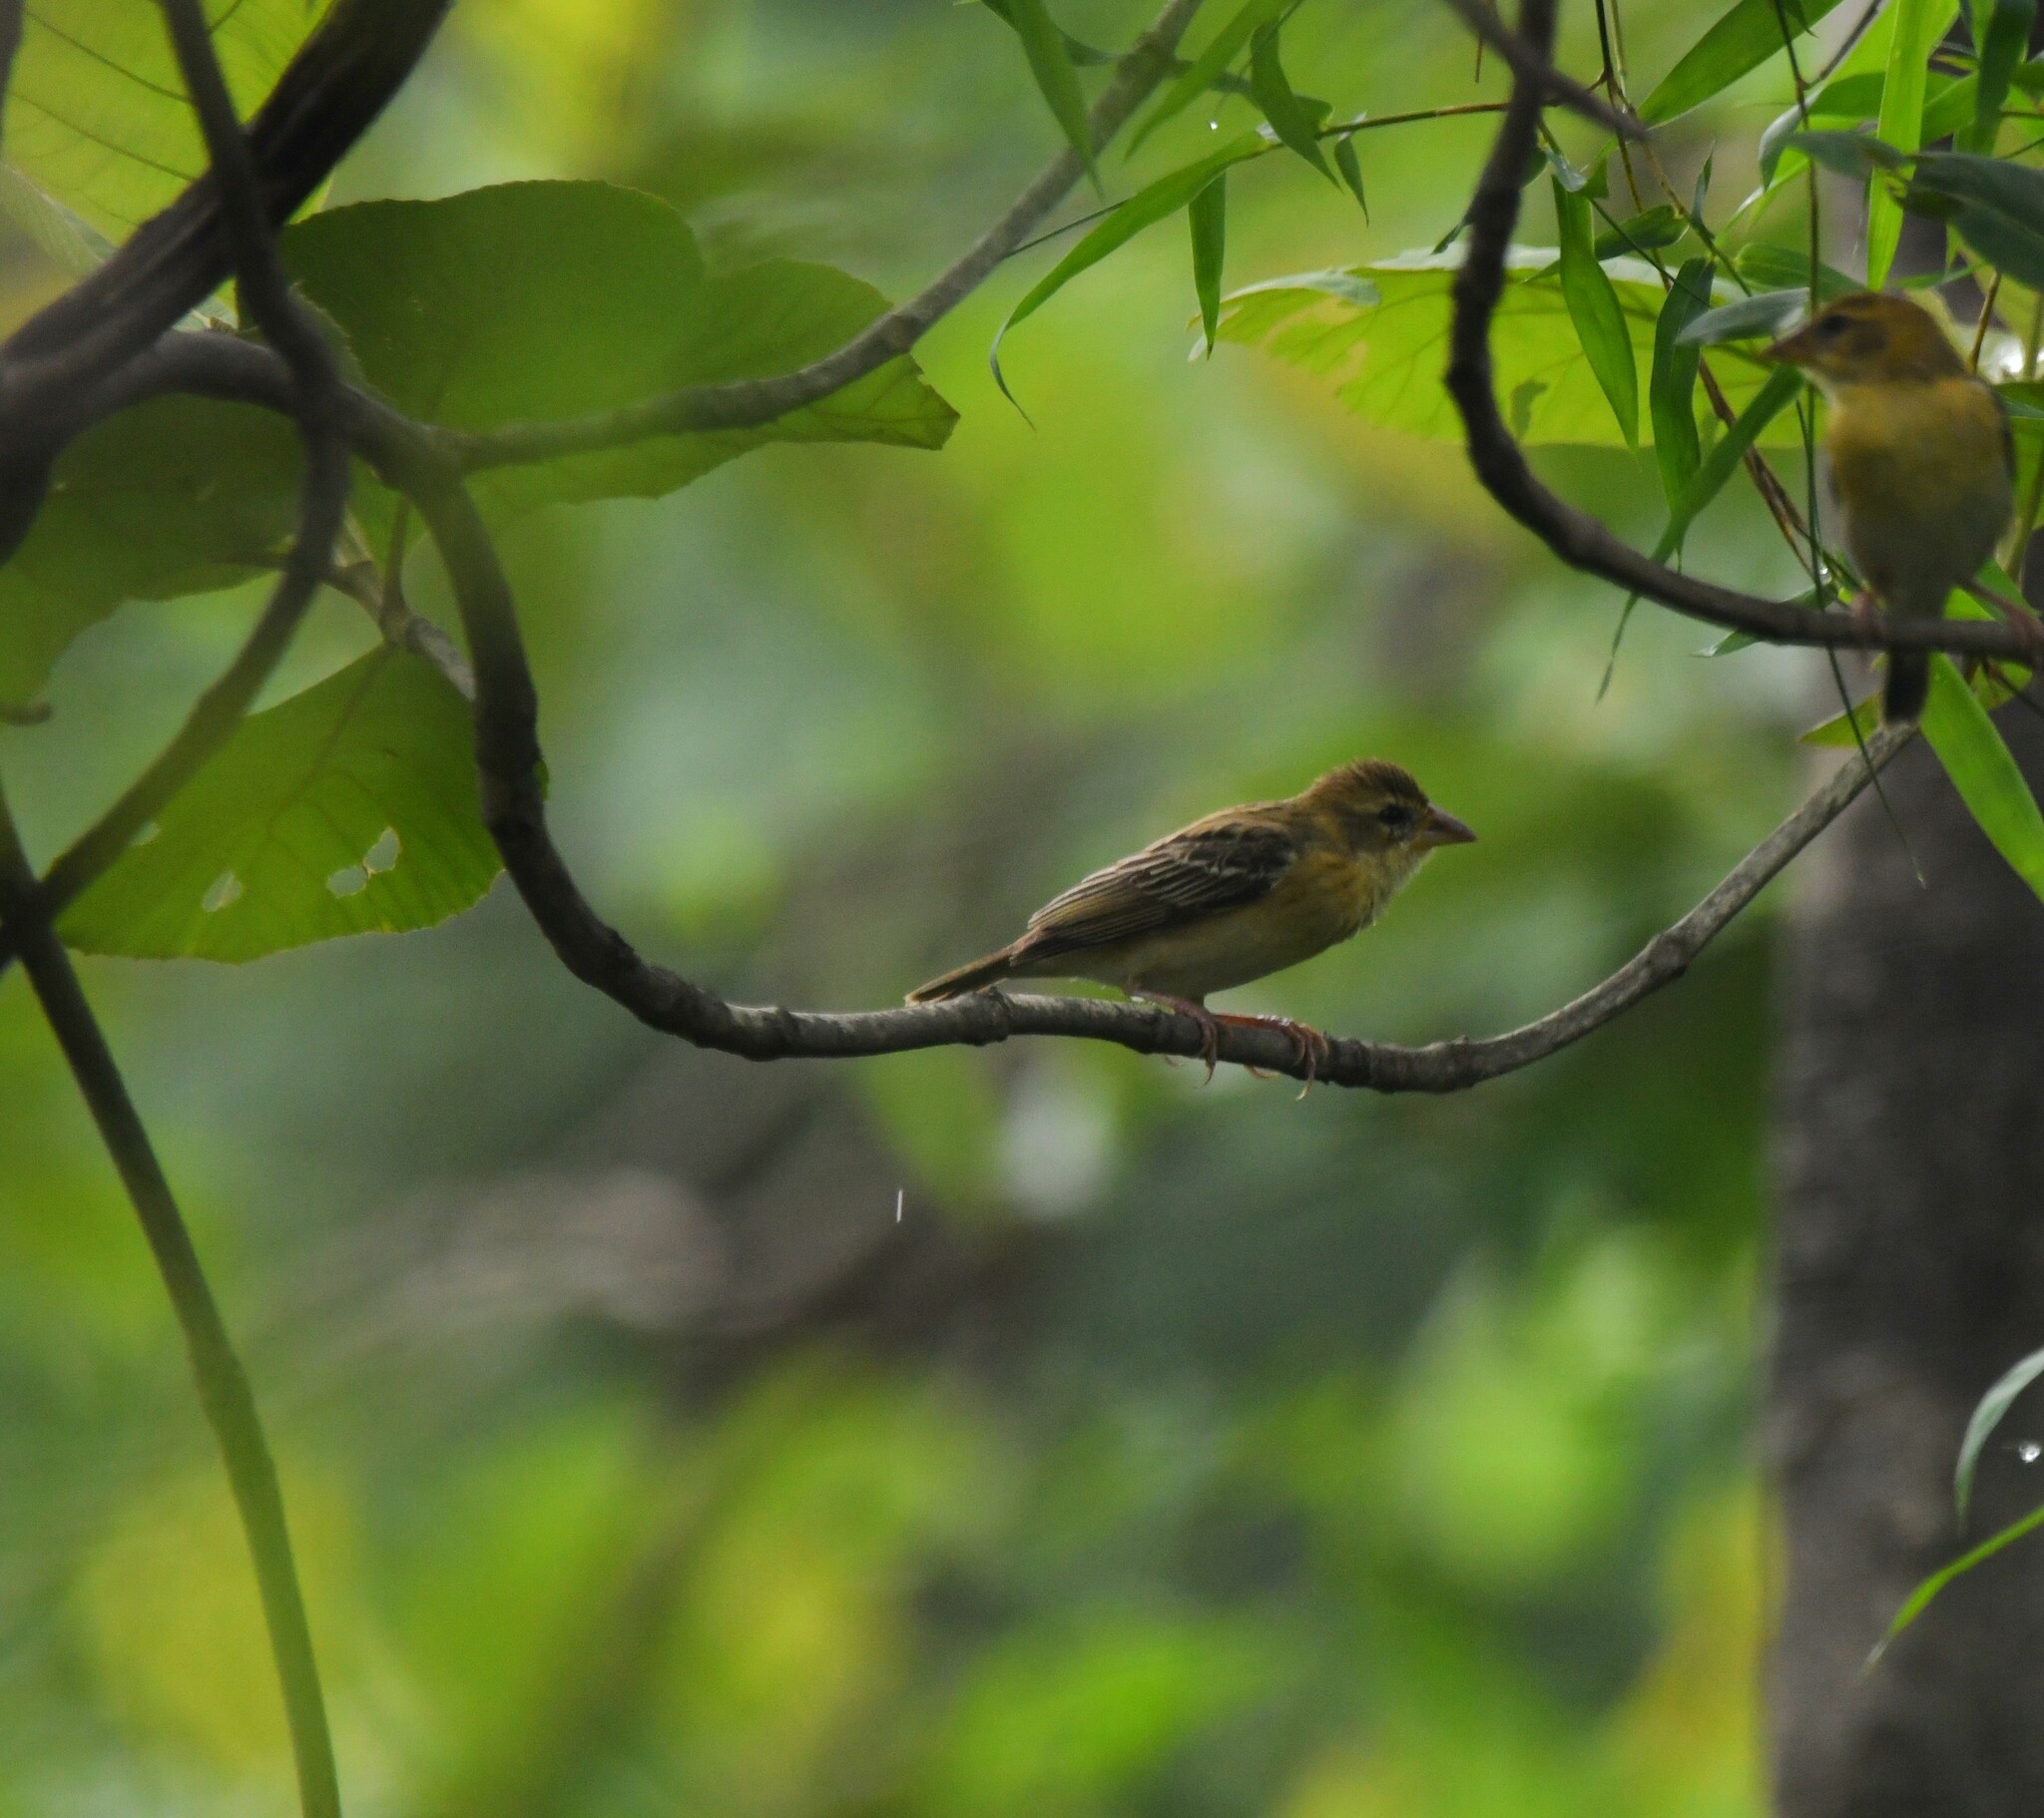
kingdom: Animalia
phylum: Chordata
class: Aves
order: Passeriformes
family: Ploceidae
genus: Ploceus
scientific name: Ploceus philippinus
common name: Baya weaver
